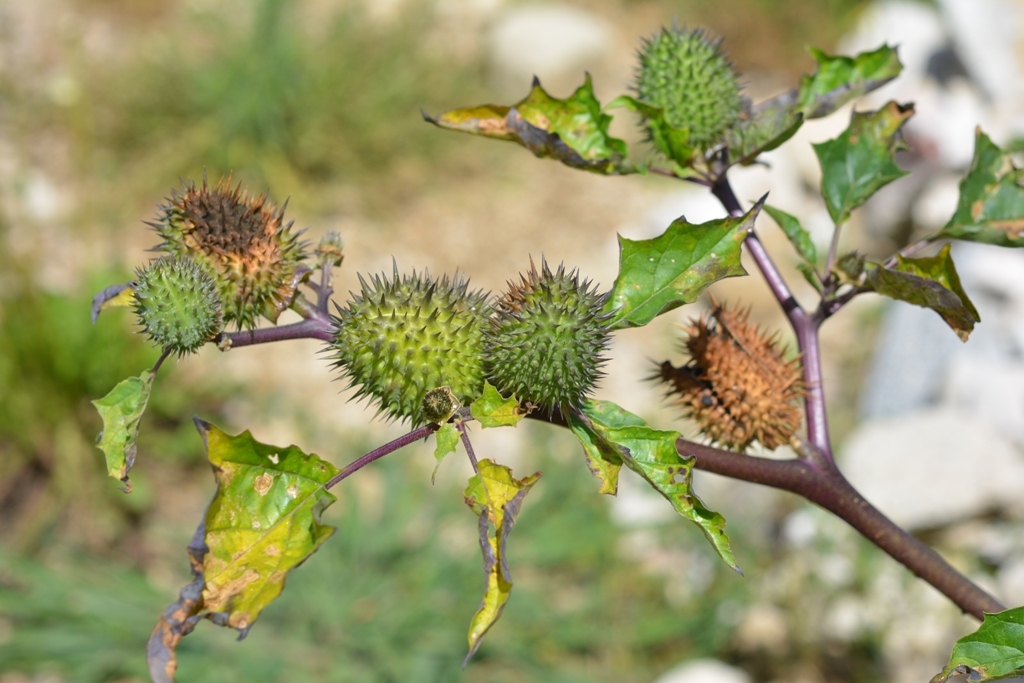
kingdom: Plantae
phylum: Tracheophyta
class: Magnoliopsida
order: Solanales
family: Solanaceae
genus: Datura
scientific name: Datura stramonium
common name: Thorn-apple
